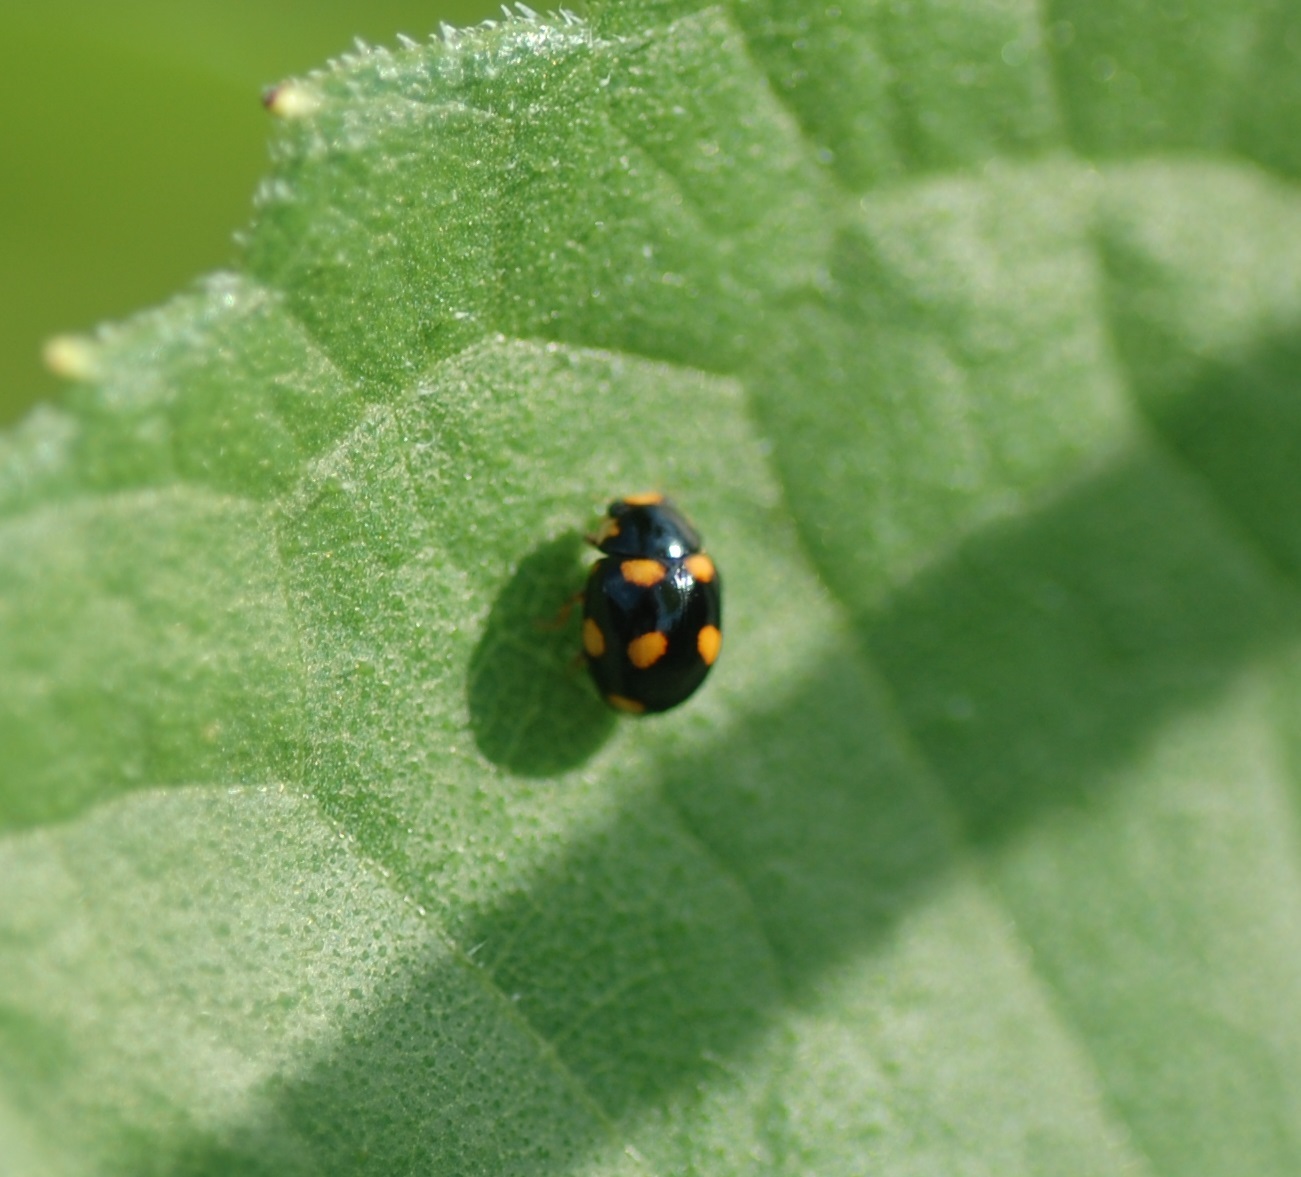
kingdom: Animalia
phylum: Arthropoda
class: Insecta
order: Coleoptera
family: Coccinellidae
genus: Brachiacantha
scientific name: Brachiacantha ursina
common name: Ursine spurleg lady beetle
